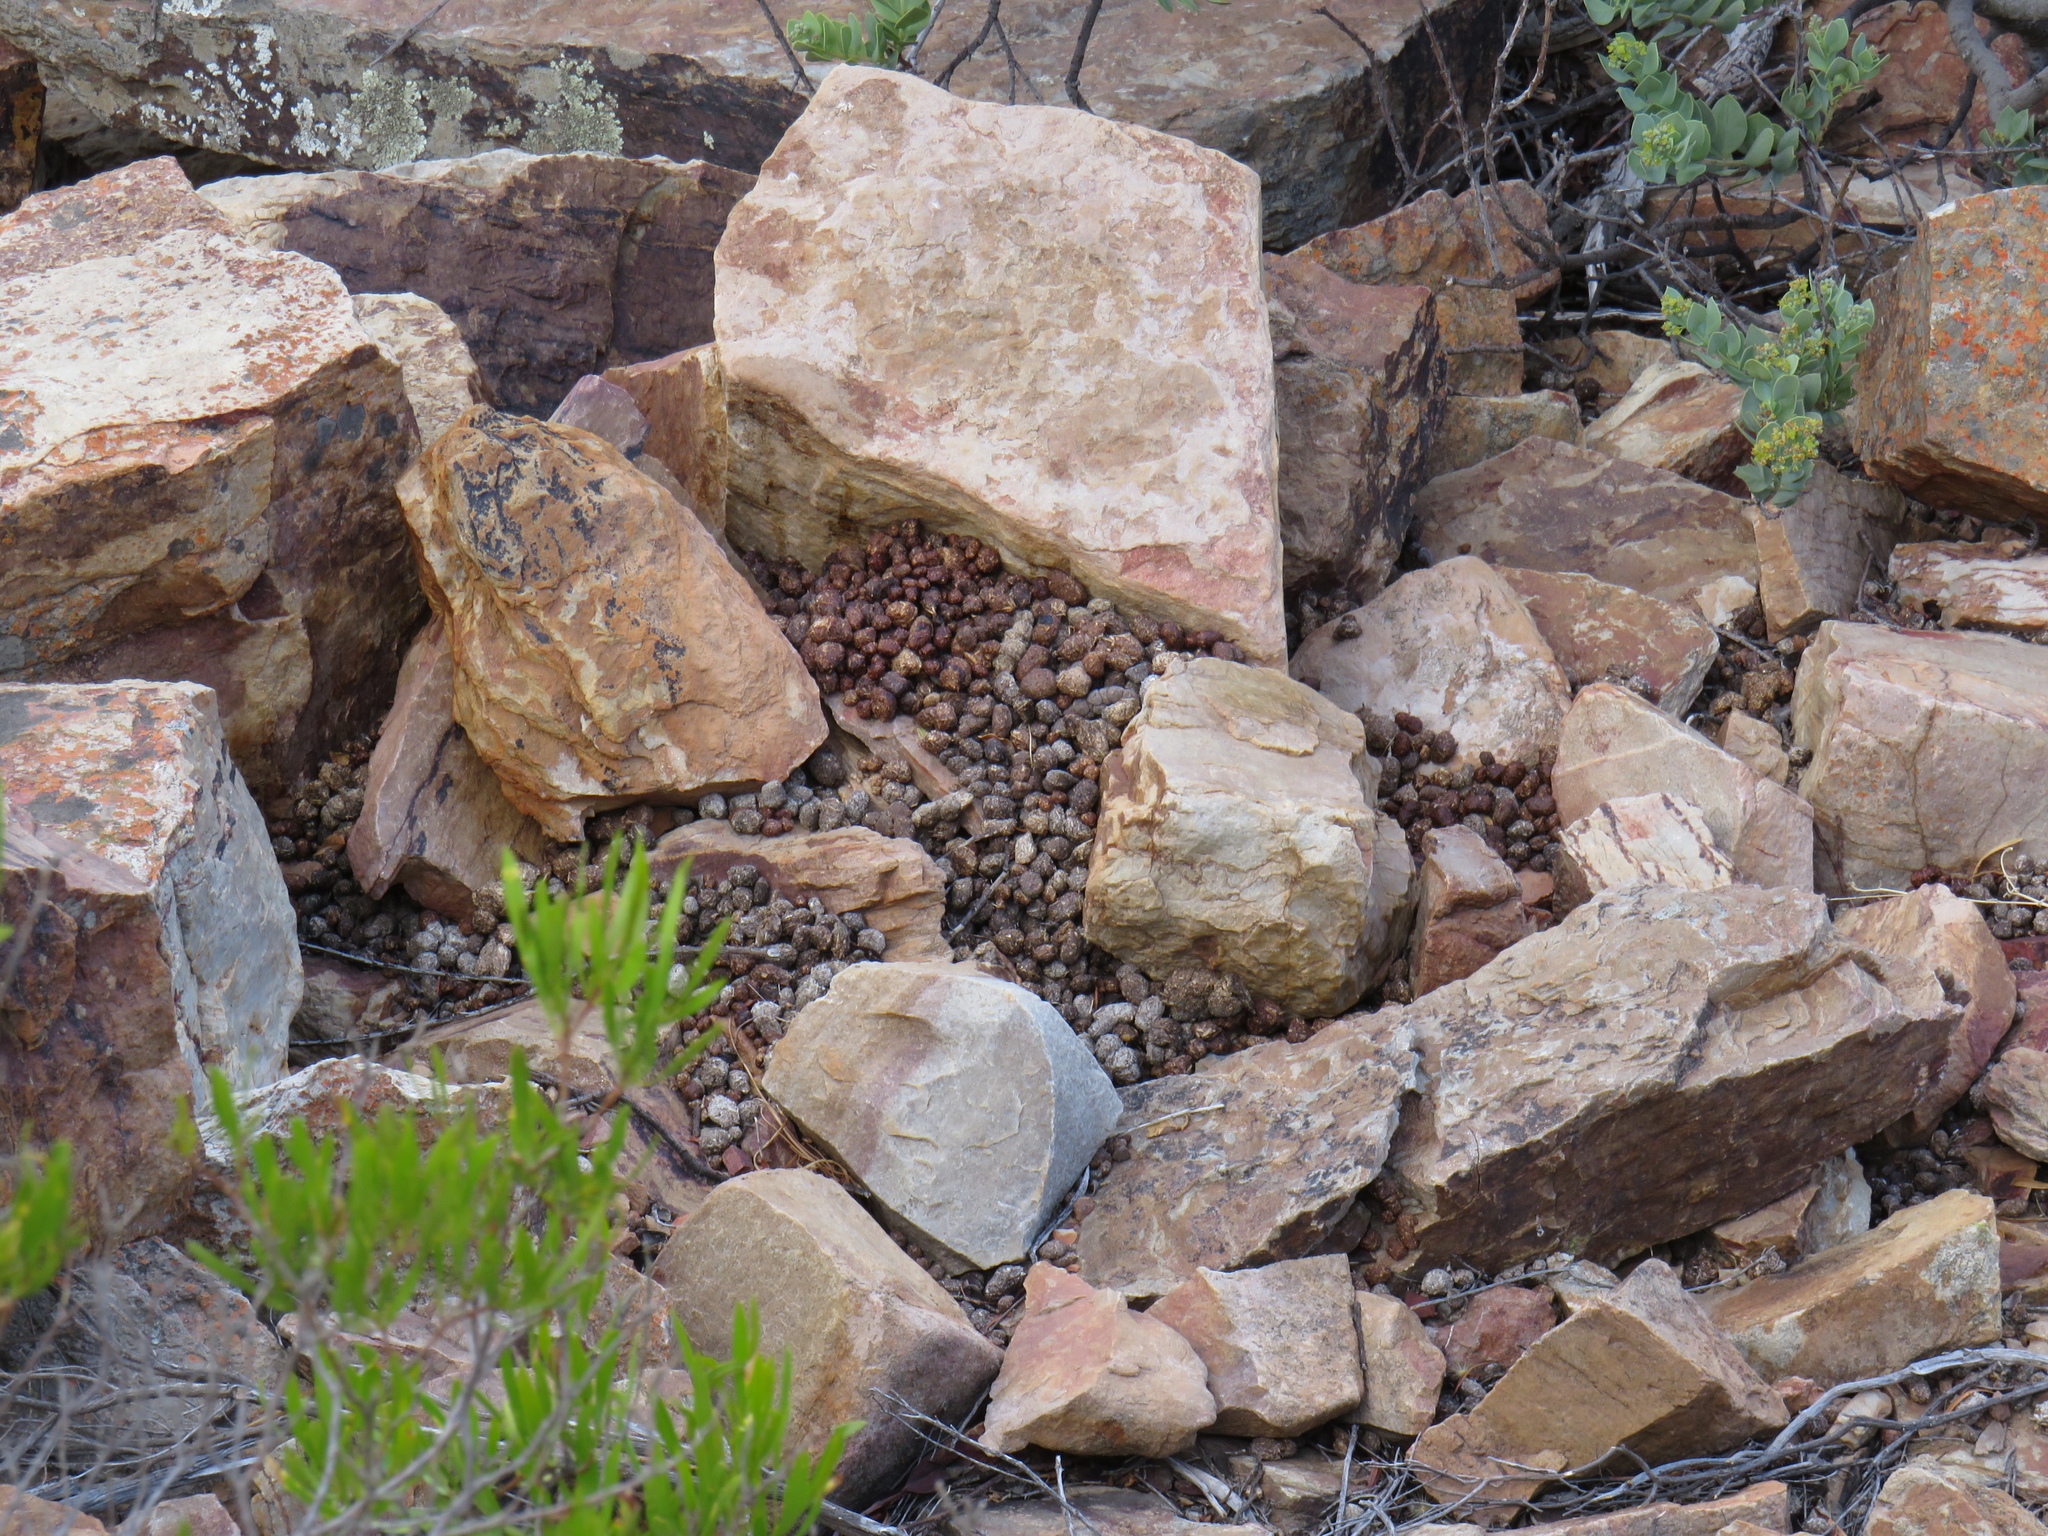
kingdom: Animalia
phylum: Chordata
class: Mammalia
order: Hyracoidea
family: Procaviidae
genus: Procavia
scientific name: Procavia capensis
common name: Rock hyrax
